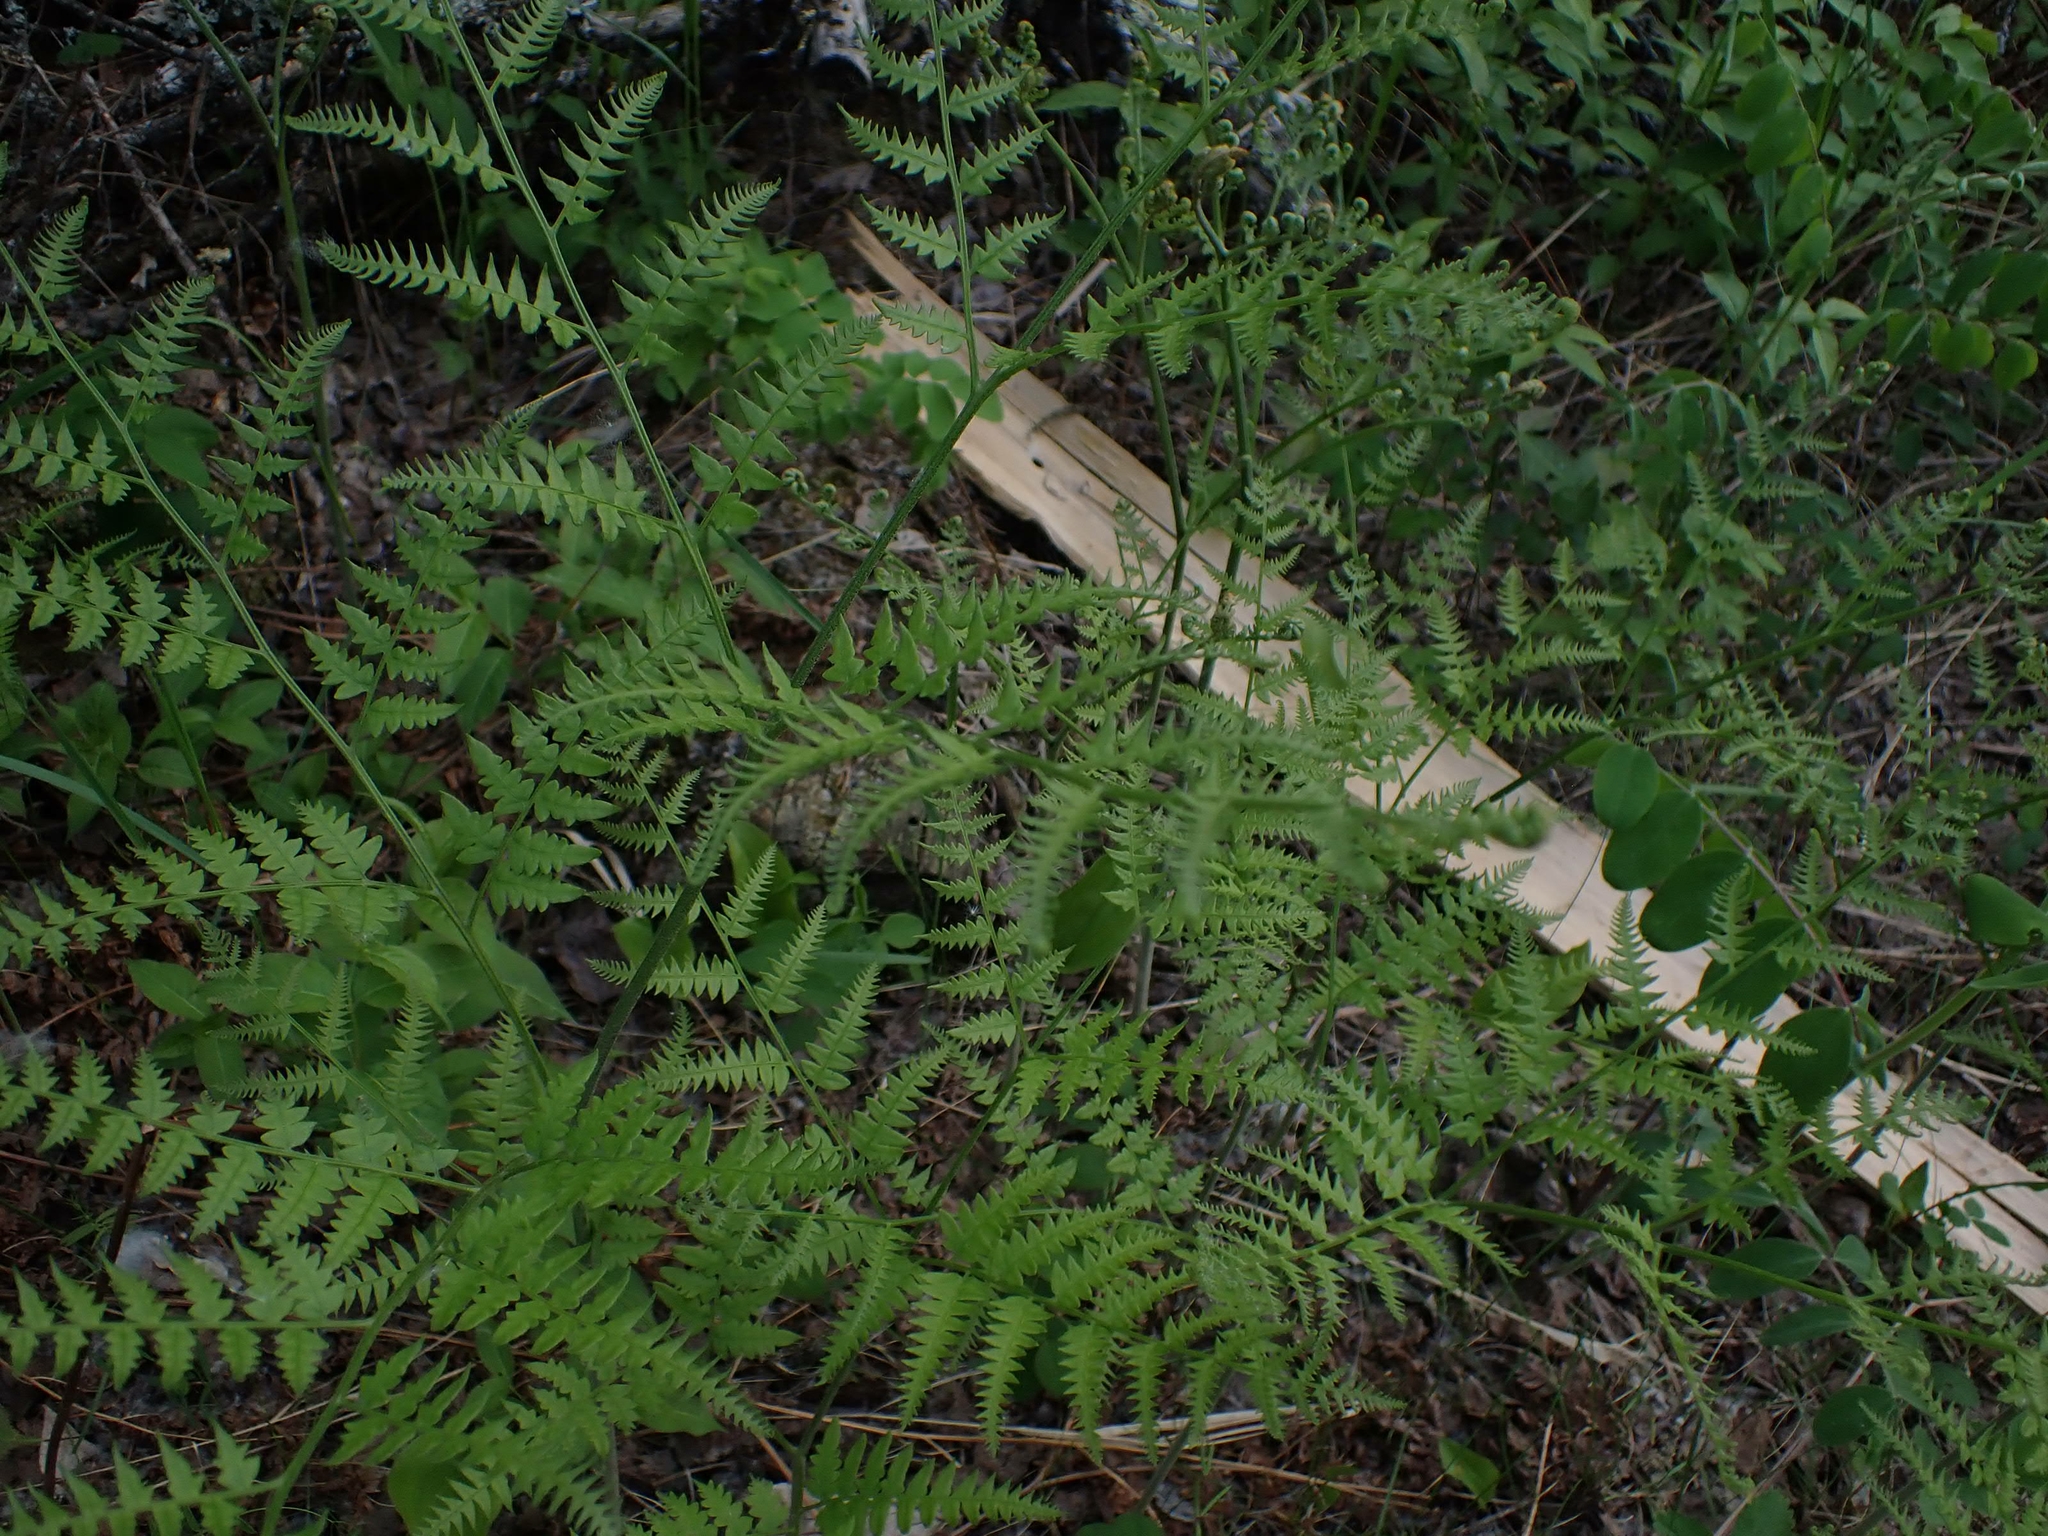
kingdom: Plantae
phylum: Tracheophyta
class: Polypodiopsida
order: Polypodiales
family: Dennstaedtiaceae
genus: Pteridium
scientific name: Pteridium aquilinum
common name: Bracken
